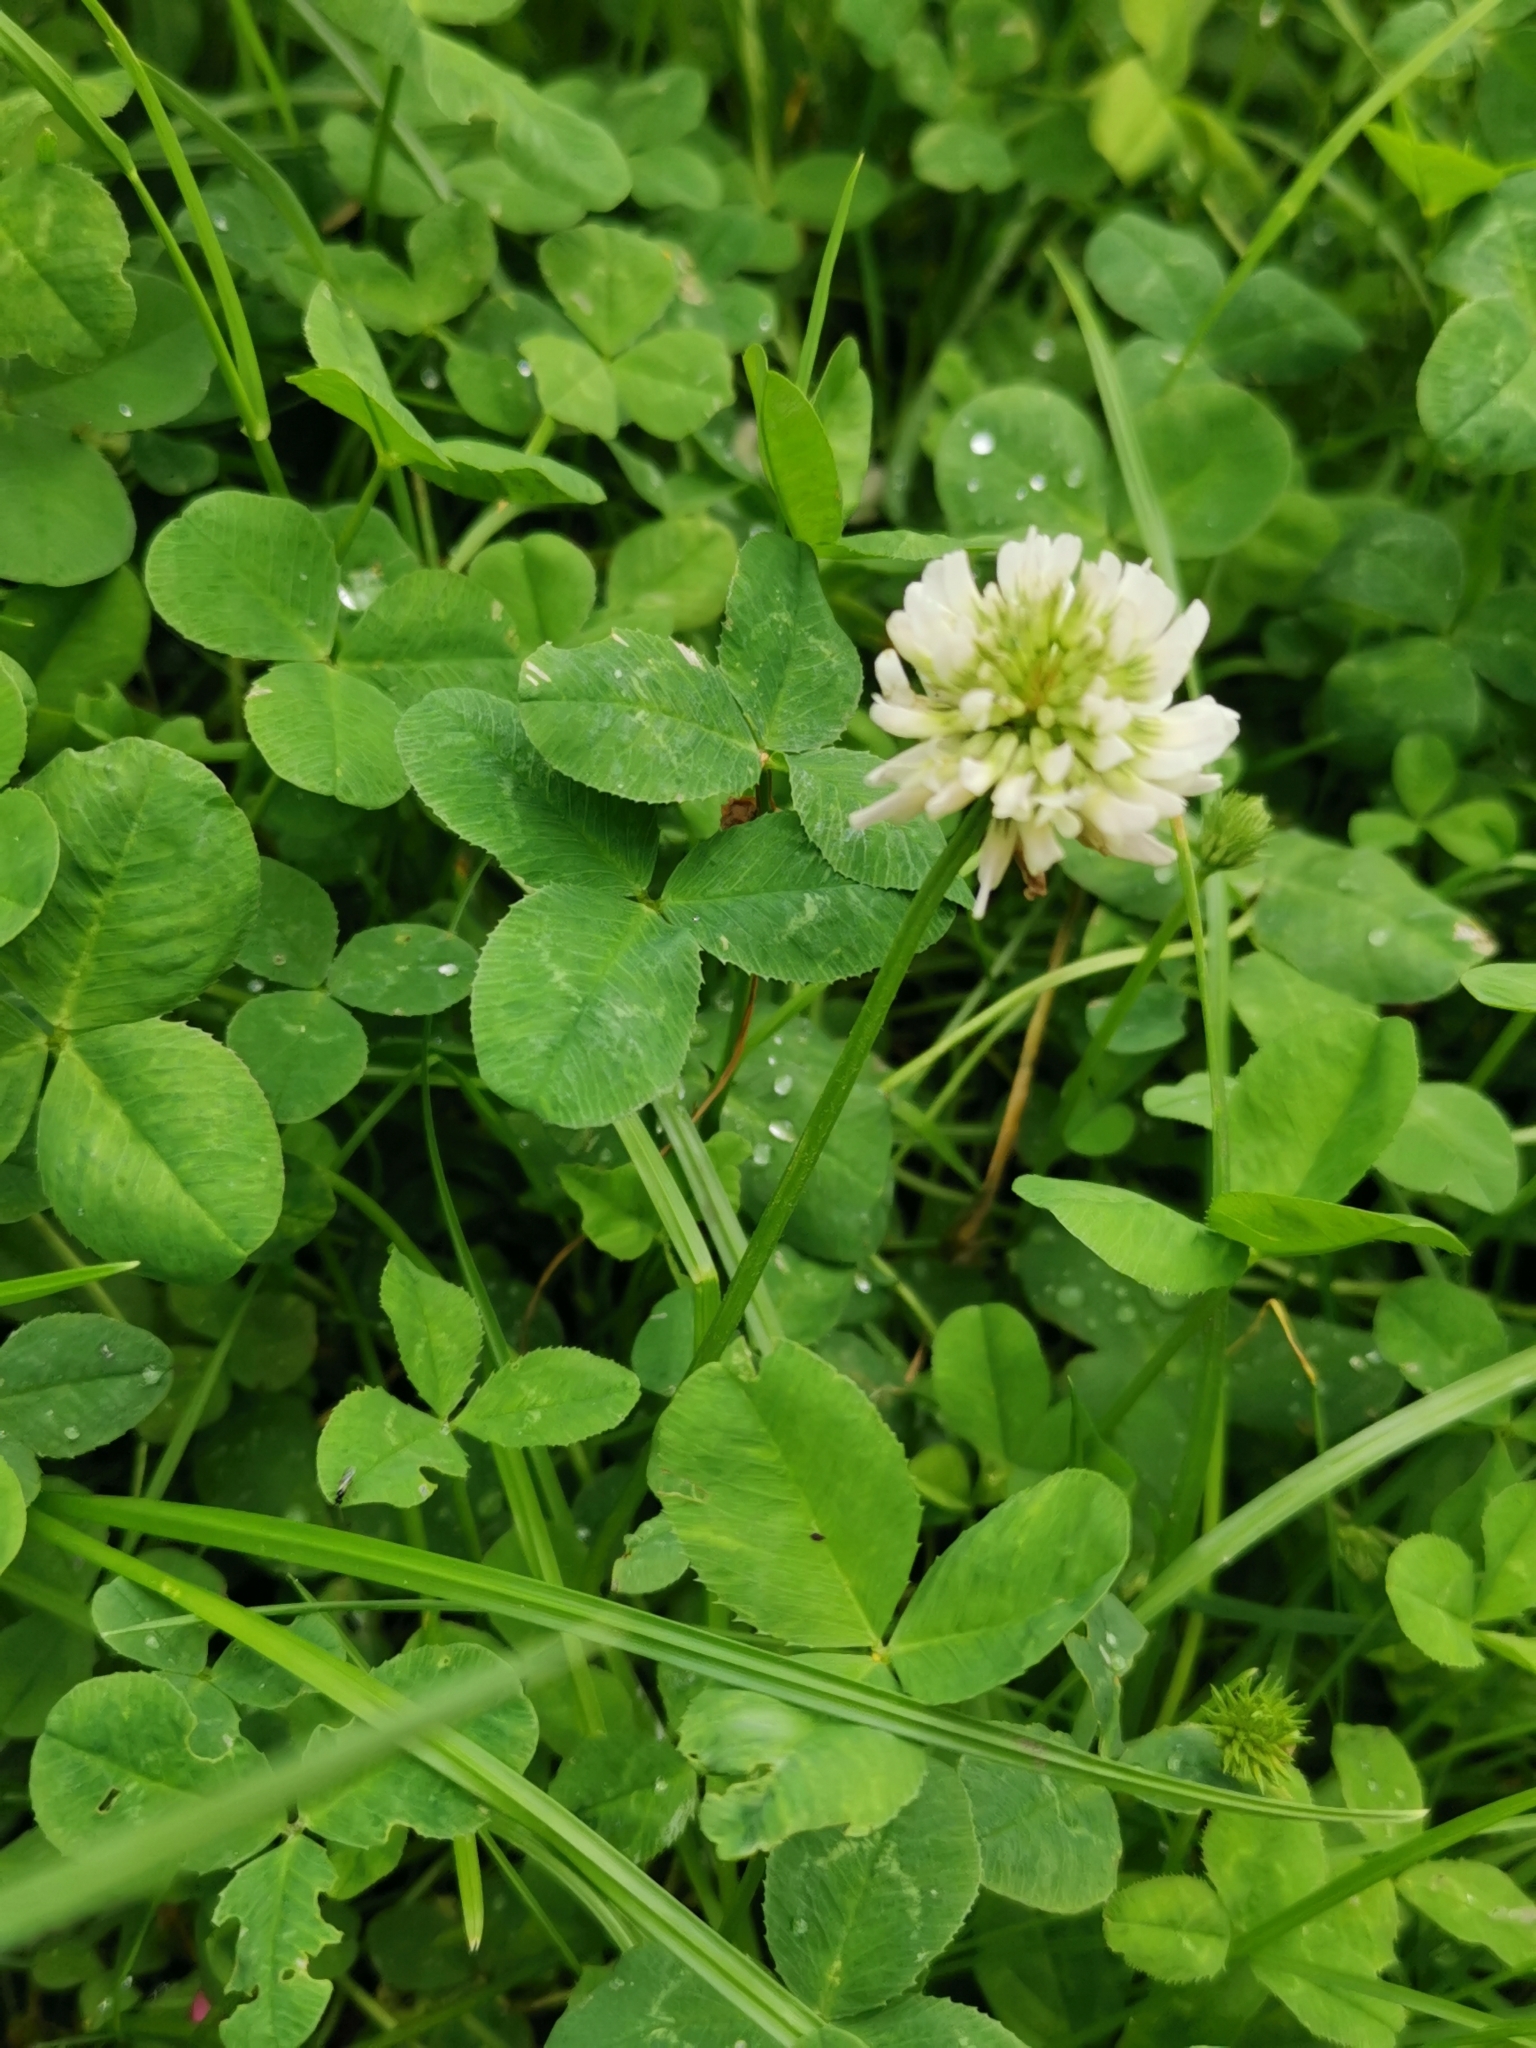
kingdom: Plantae
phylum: Tracheophyta
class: Magnoliopsida
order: Fabales
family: Fabaceae
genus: Trifolium
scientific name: Trifolium repens
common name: White clover
